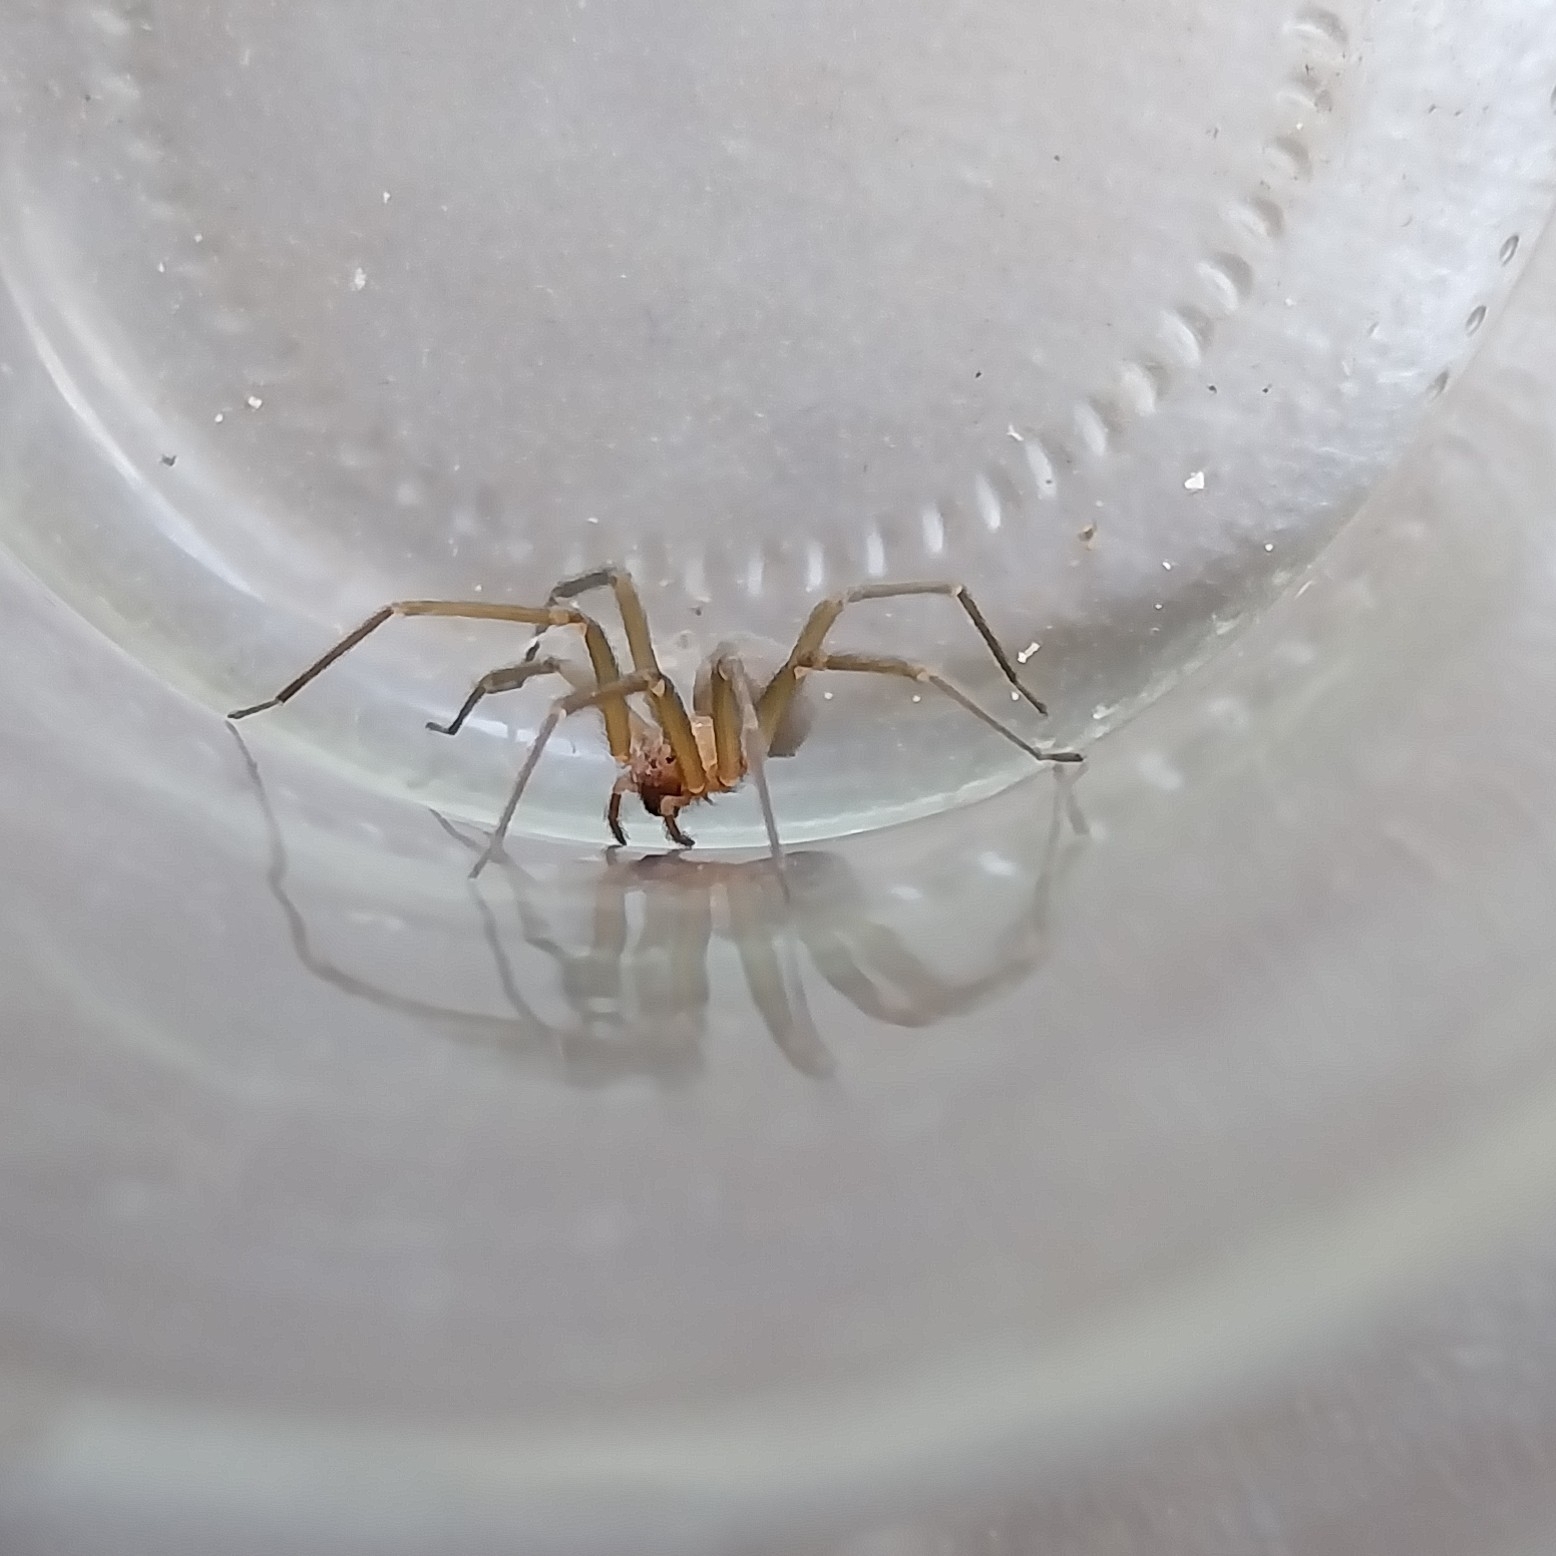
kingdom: Animalia
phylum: Arthropoda
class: Arachnida
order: Araneae
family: Sicariidae
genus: Loxosceles
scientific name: Loxosceles laeta
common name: Chilean recluse spider
